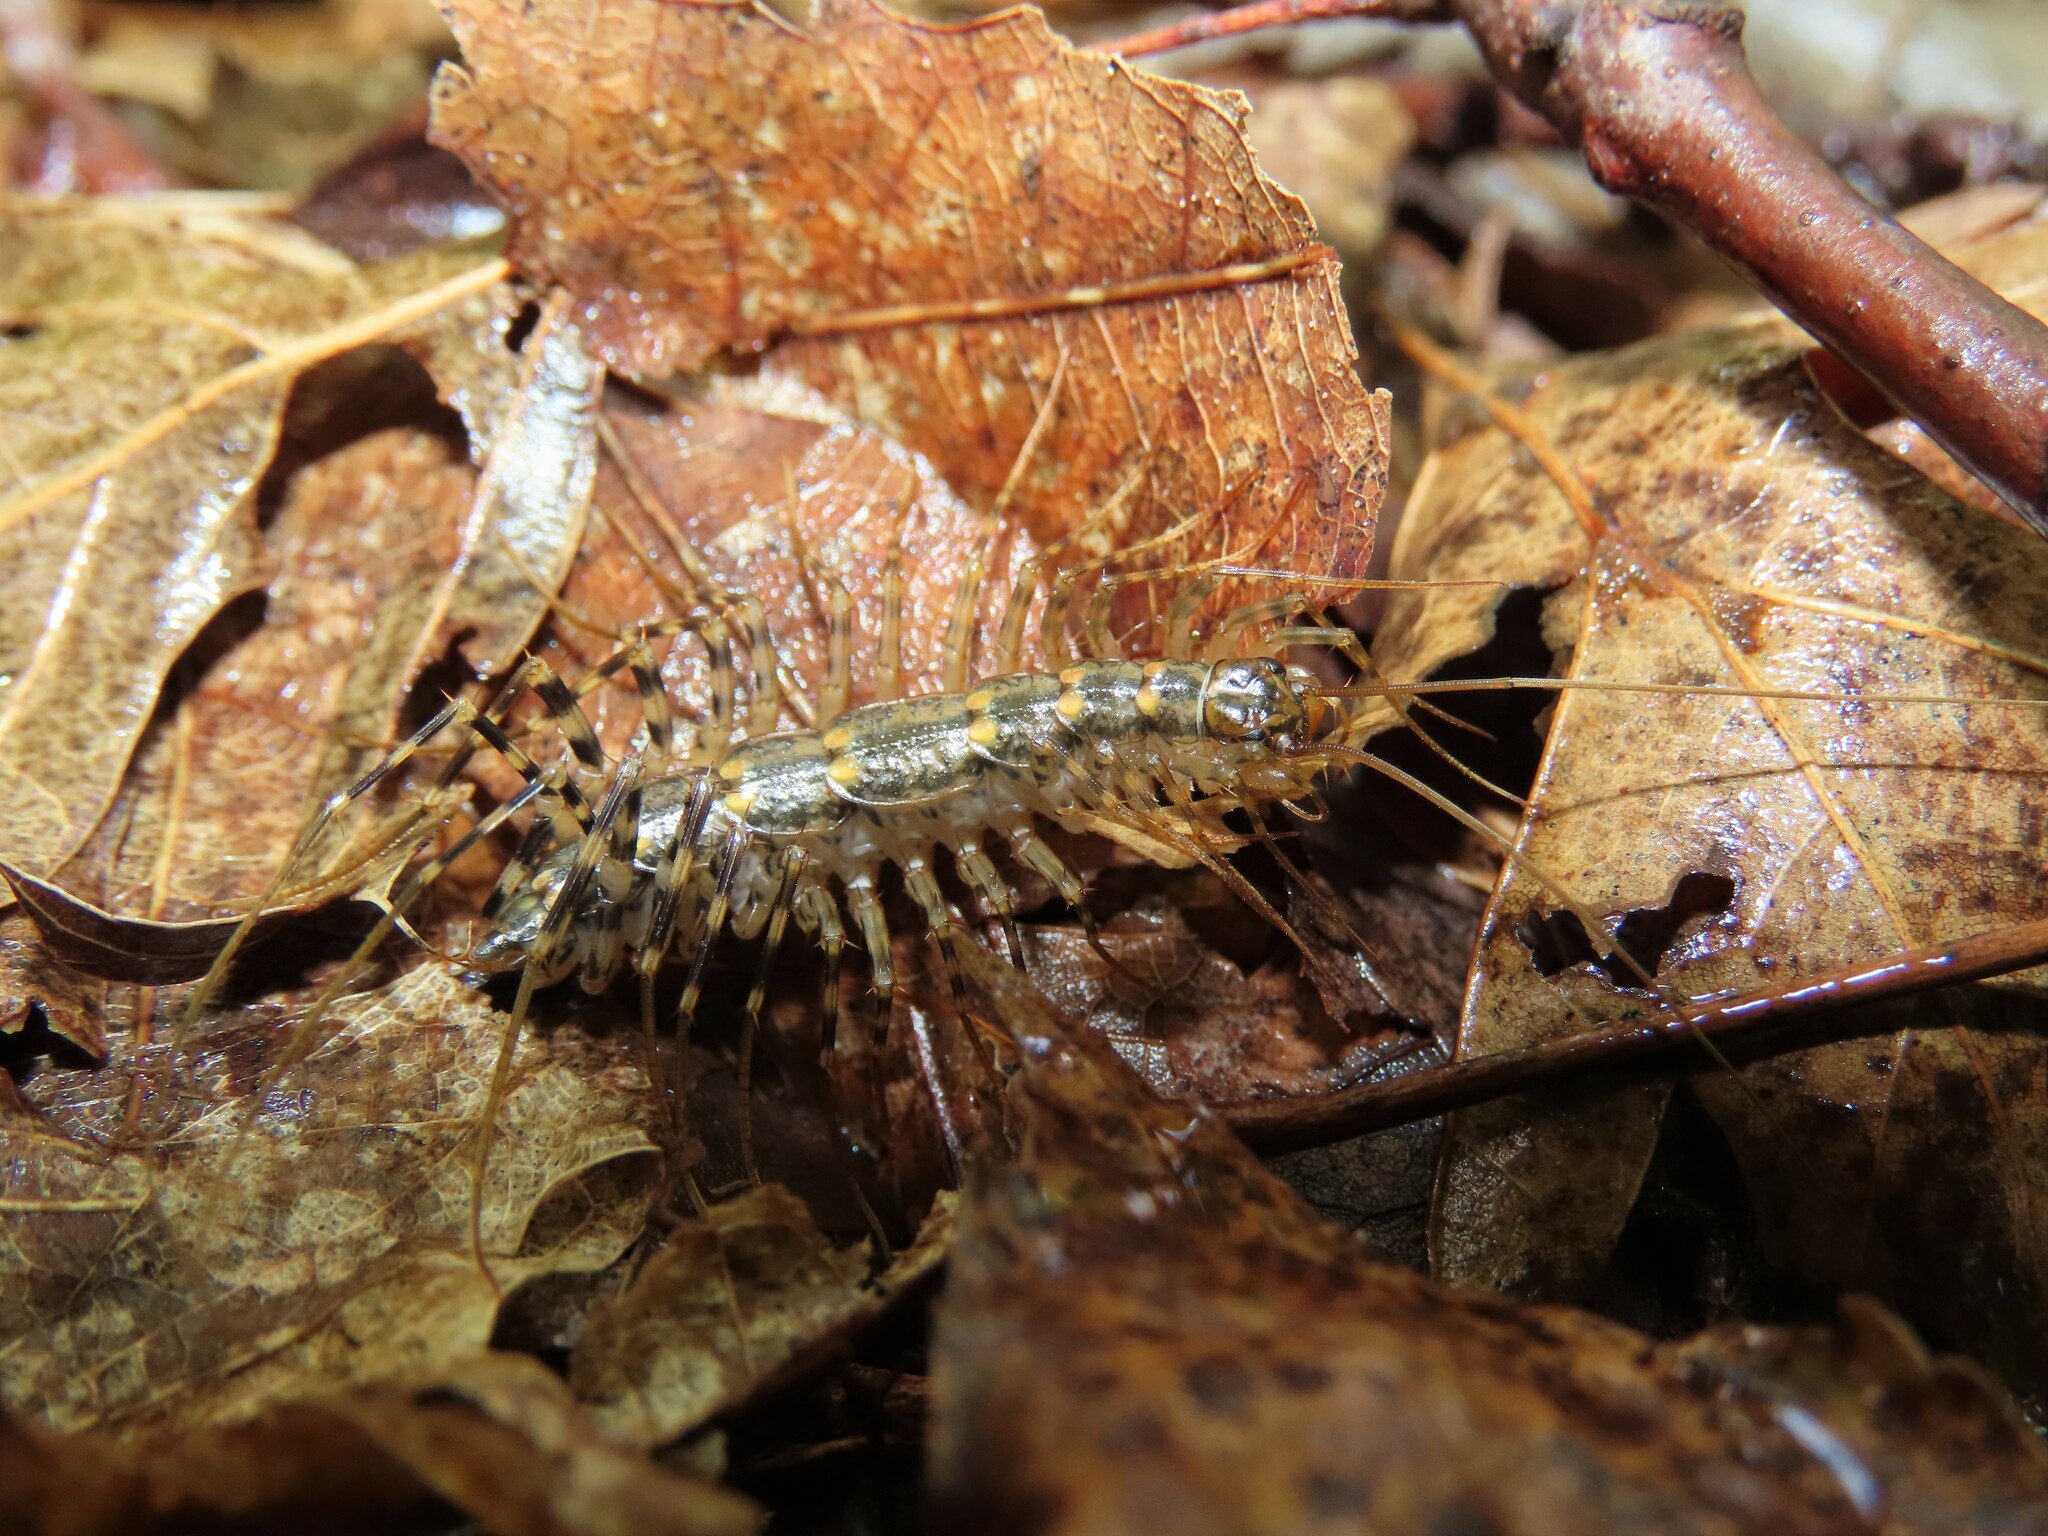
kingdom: Animalia
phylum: Arthropoda
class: Chilopoda
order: Scutigeromorpha
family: Scutigeridae
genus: Thereuonema
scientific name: Thereuonema tuberculata
